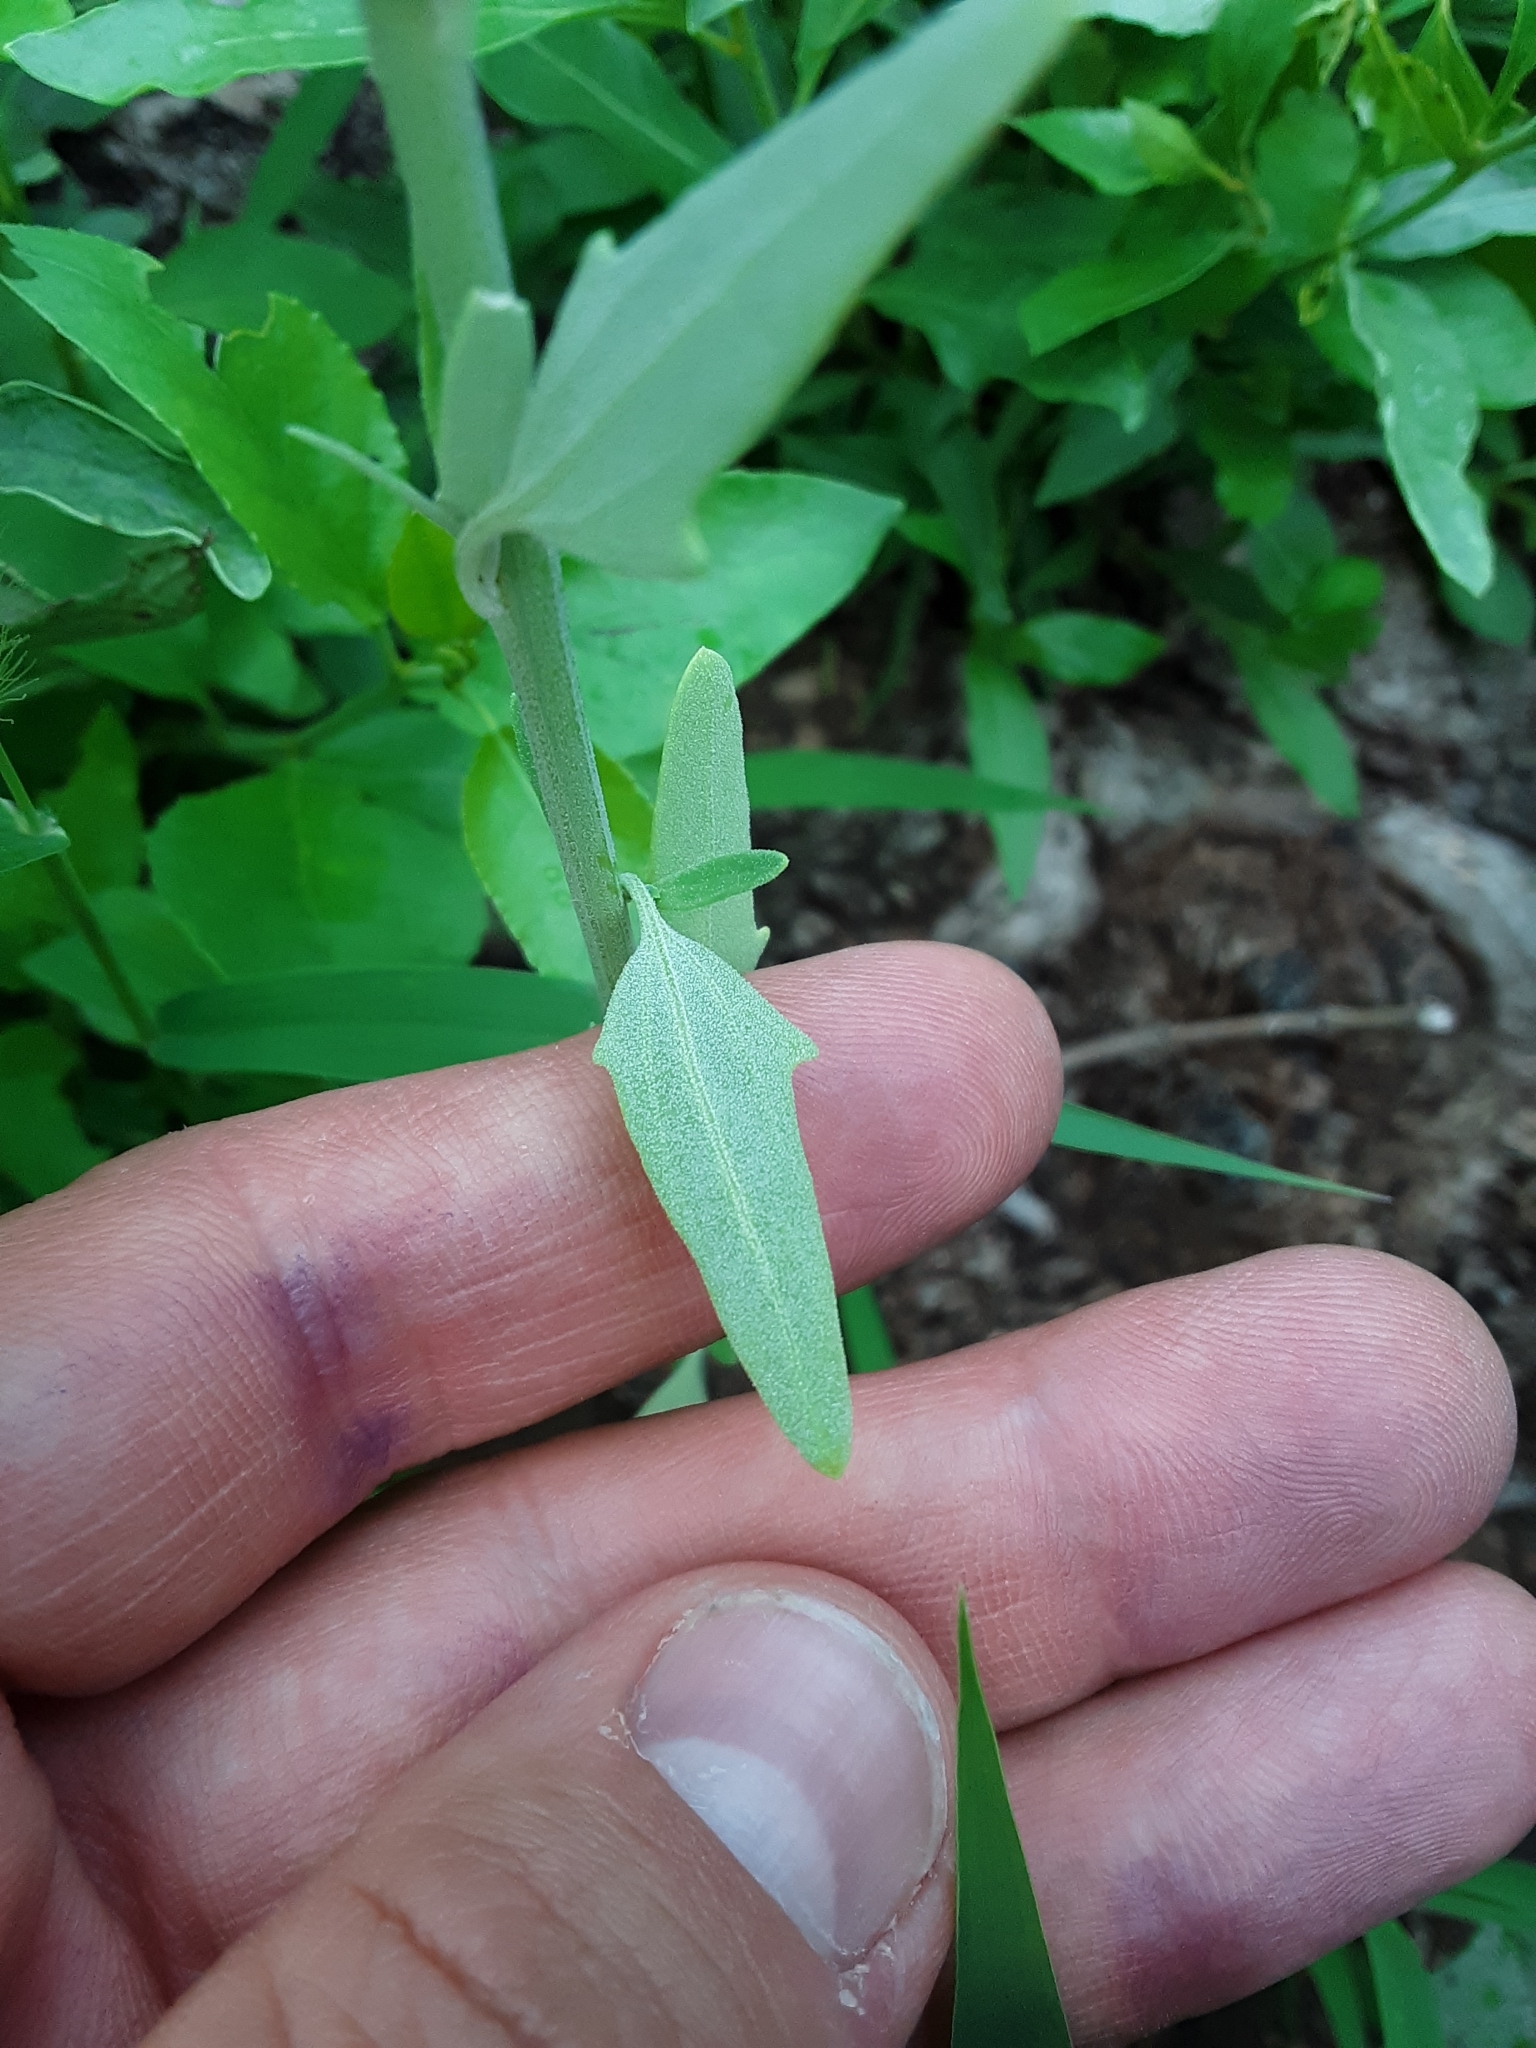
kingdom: Plantae
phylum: Tracheophyta
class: Magnoliopsida
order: Asterales
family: Asteraceae
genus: Artemisia
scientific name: Artemisia ludoviciana
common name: Western mugwort
